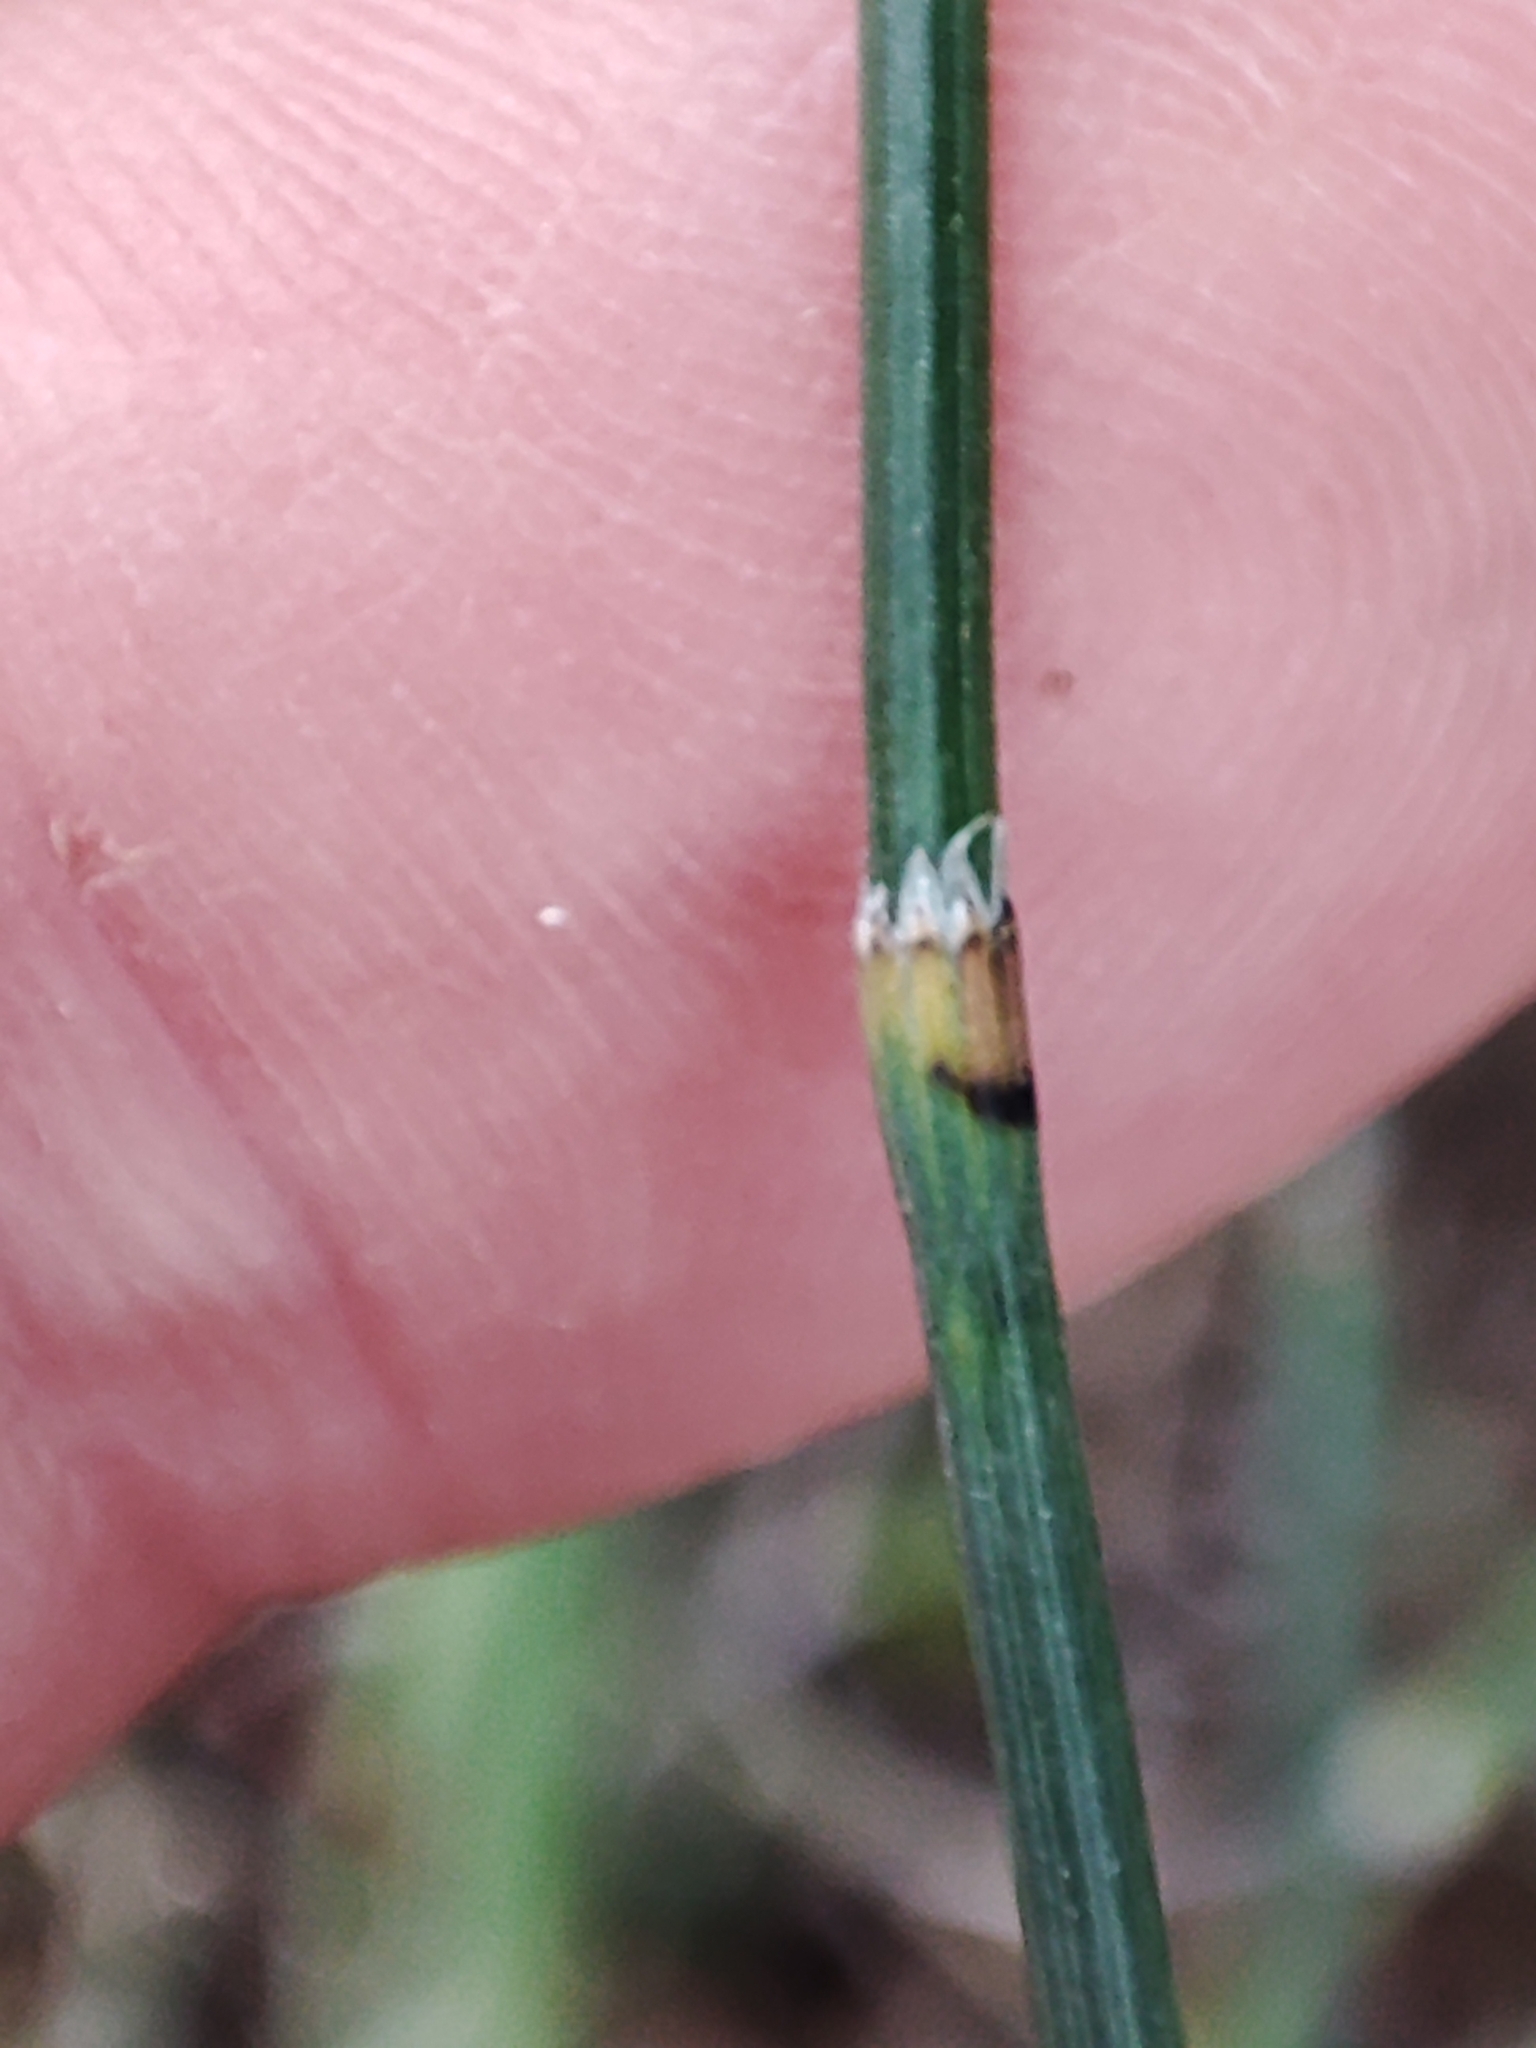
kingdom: Plantae
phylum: Tracheophyta
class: Polypodiopsida
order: Equisetales
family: Equisetaceae
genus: Equisetum
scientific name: Equisetum ramosissimum
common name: Branched horsetail
